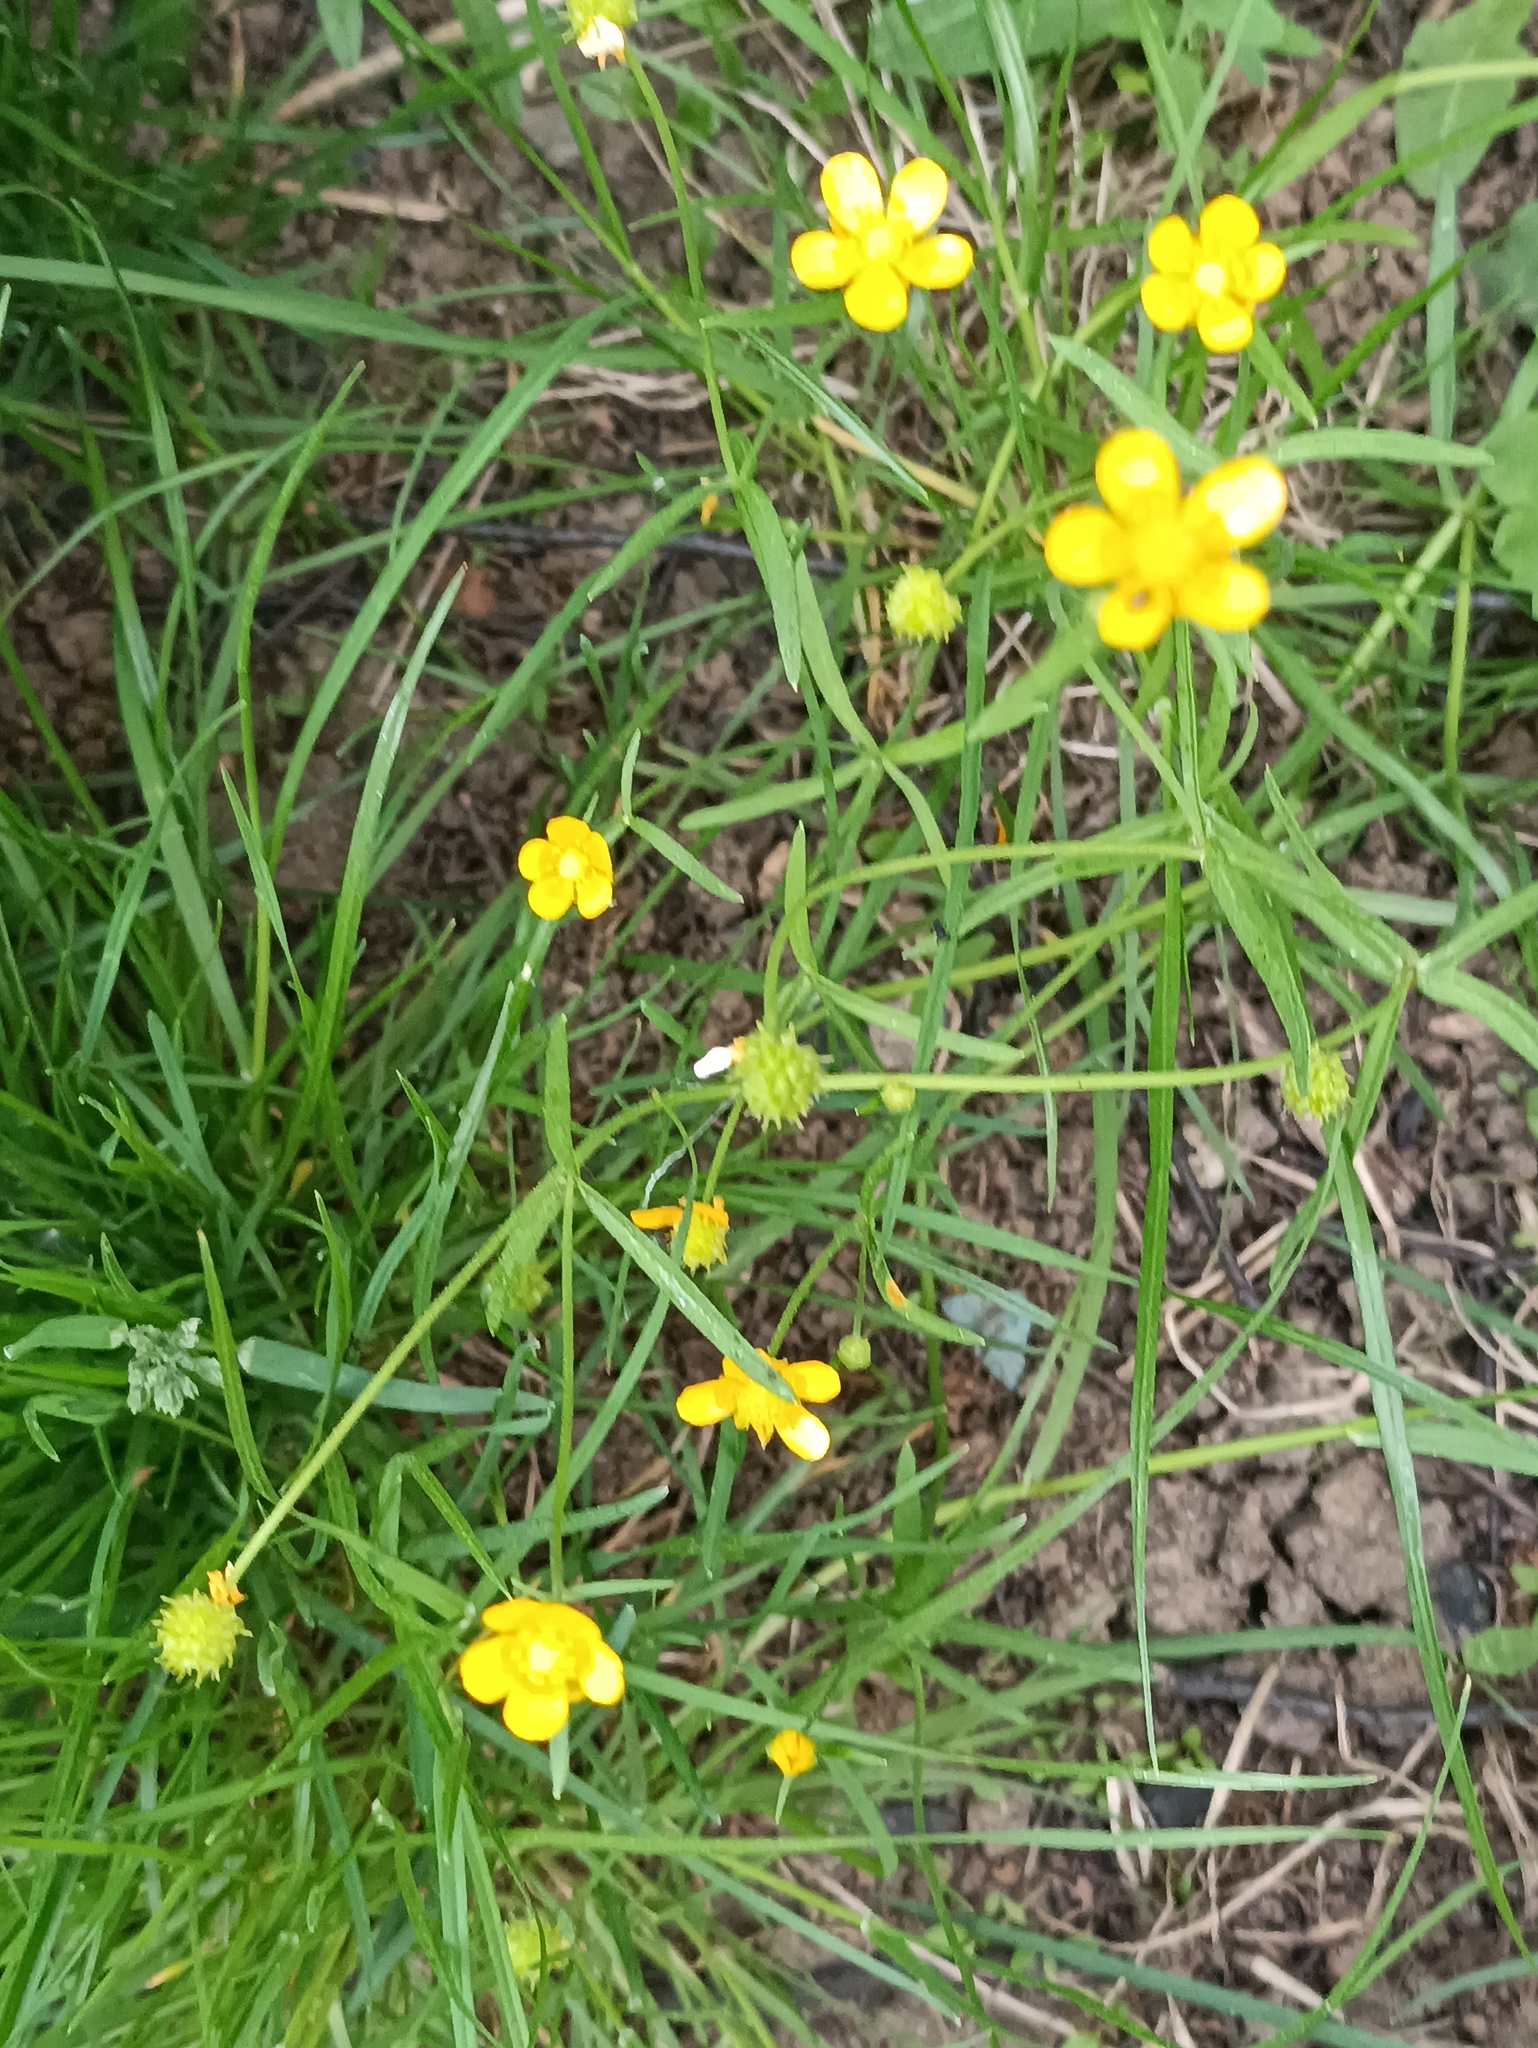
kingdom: Plantae
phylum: Tracheophyta
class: Magnoliopsida
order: Ranunculales
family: Ranunculaceae
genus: Ranunculus
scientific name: Ranunculus auricomus
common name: Goldilocks buttercup
